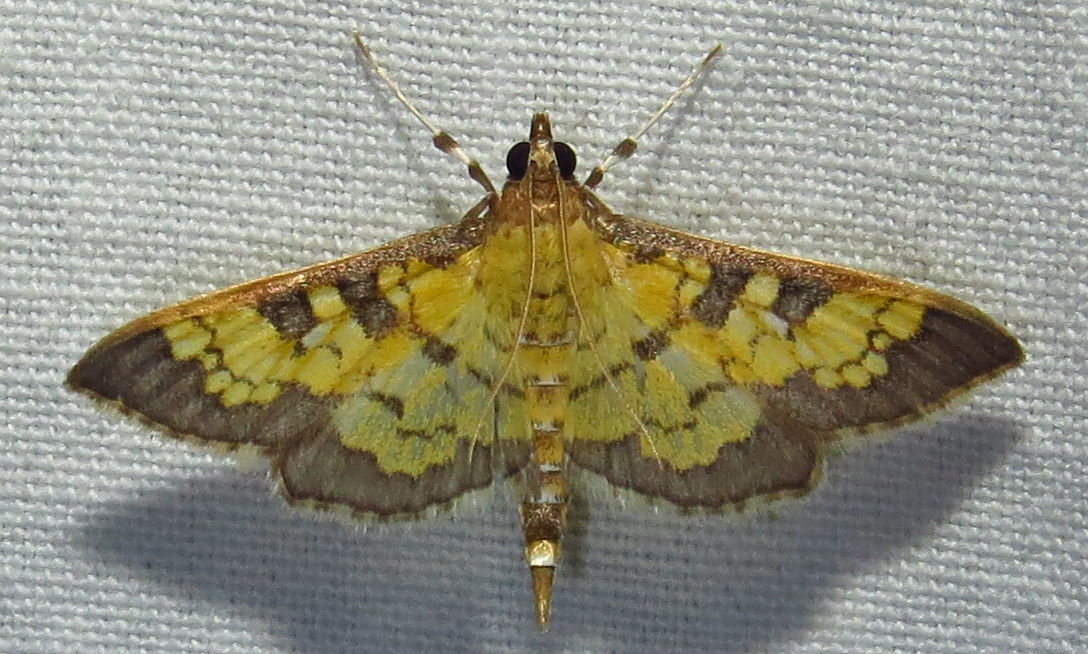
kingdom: Animalia
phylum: Arthropoda
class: Insecta
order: Lepidoptera
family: Crambidae
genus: Epipagis
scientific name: Epipagis adipaloides
